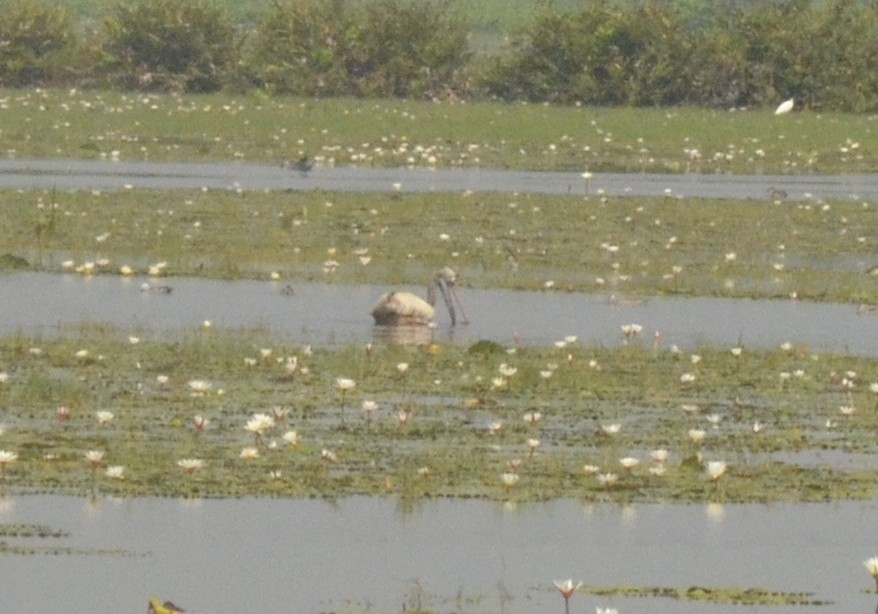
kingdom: Animalia
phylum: Chordata
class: Aves
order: Pelecaniformes
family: Pelecanidae
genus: Pelecanus
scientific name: Pelecanus philippensis
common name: Spot-billed pelican
